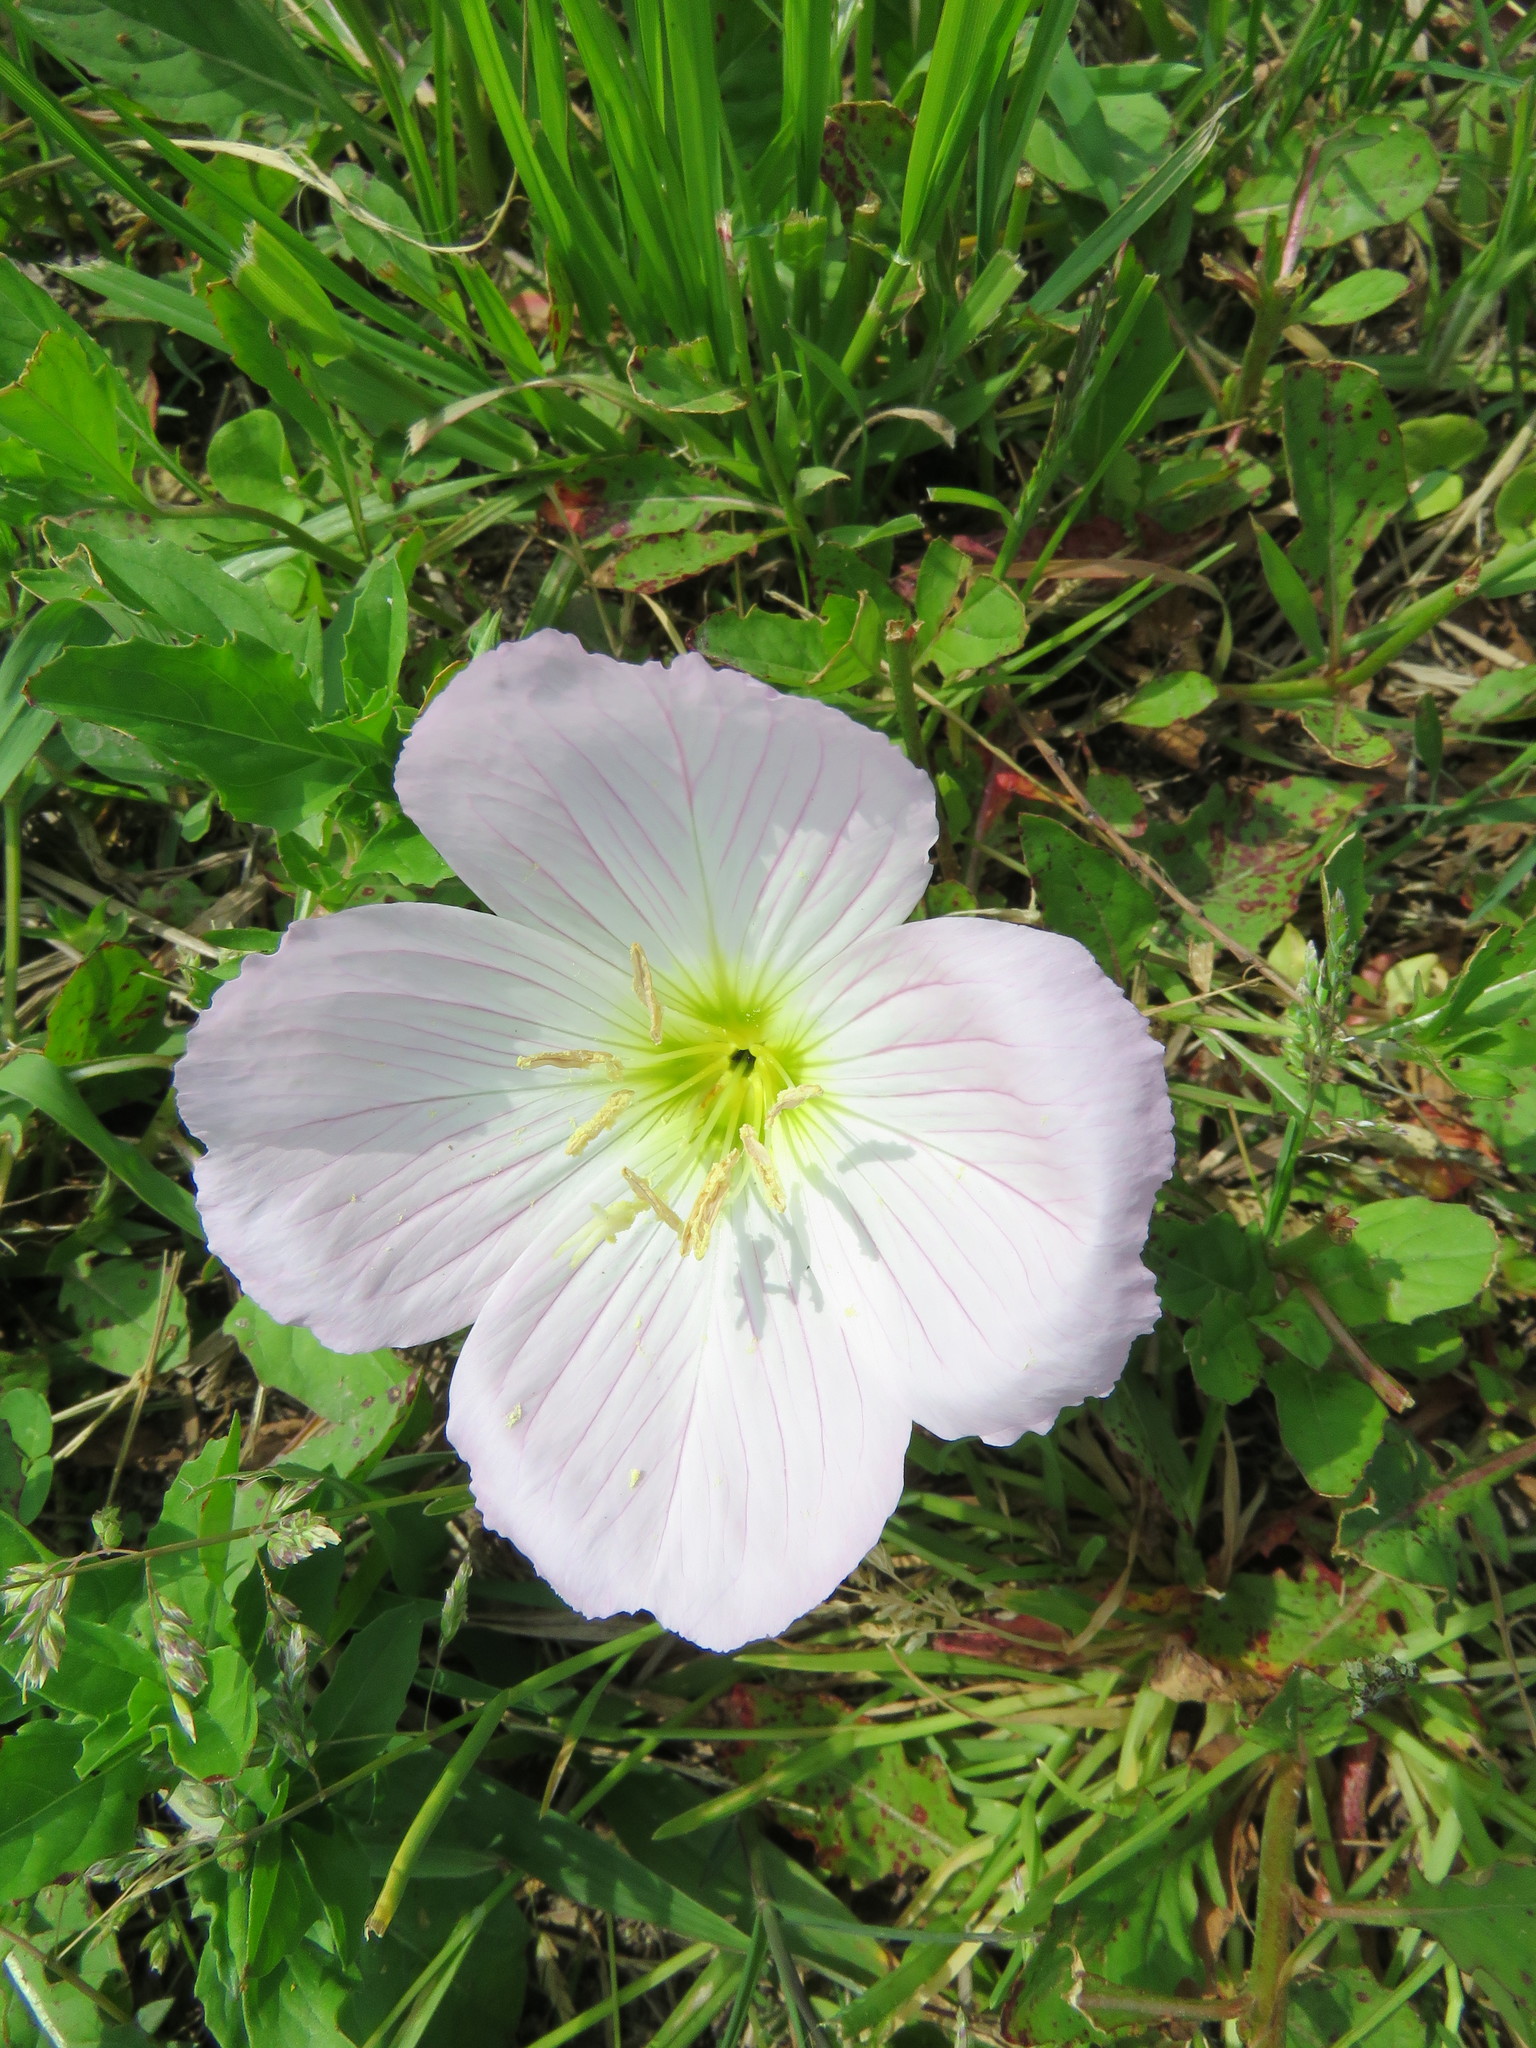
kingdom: Plantae
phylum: Tracheophyta
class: Magnoliopsida
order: Myrtales
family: Onagraceae
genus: Oenothera
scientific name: Oenothera speciosa
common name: White evening-primrose
